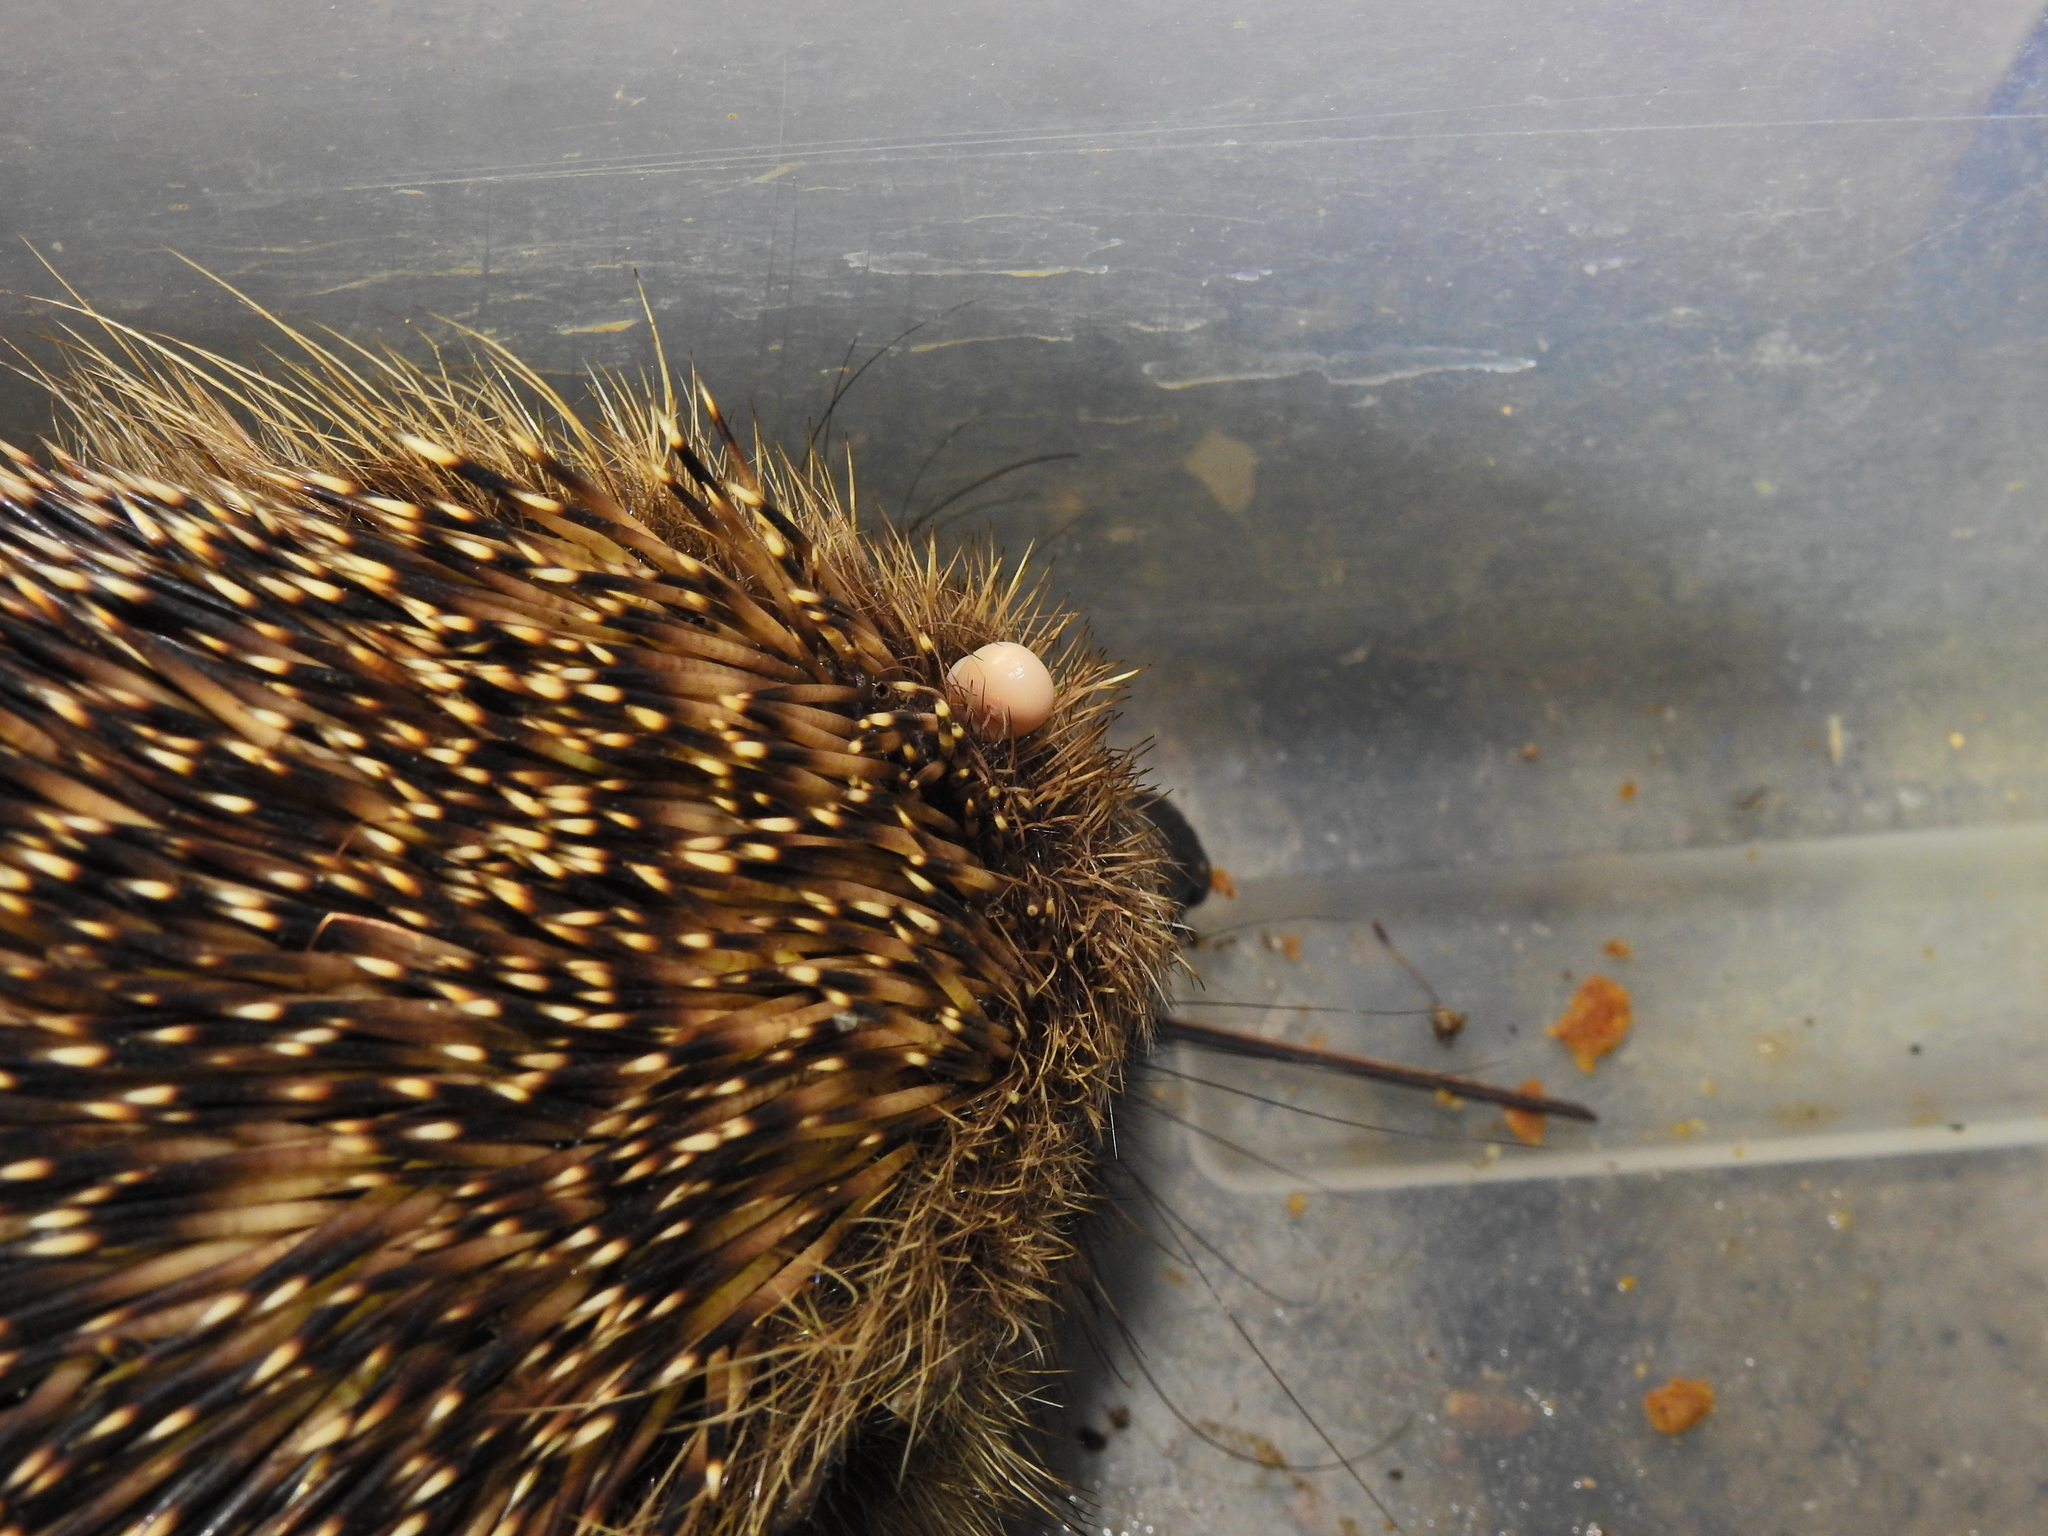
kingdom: Animalia
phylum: Arthropoda
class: Arachnida
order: Ixodida
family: Ixodidae
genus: Ixodes
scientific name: Ixodes hexagonus
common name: Hedgehog tick
